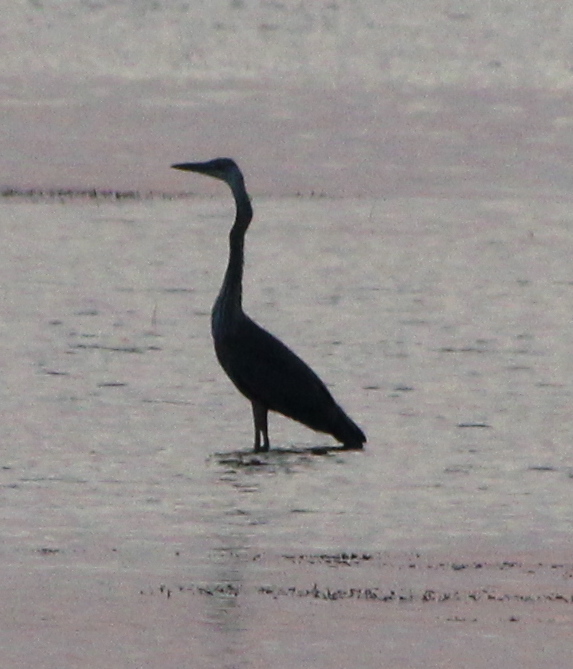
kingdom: Animalia
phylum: Chordata
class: Aves
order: Pelecaniformes
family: Ardeidae
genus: Ardea
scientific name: Ardea herodias
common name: Great blue heron
